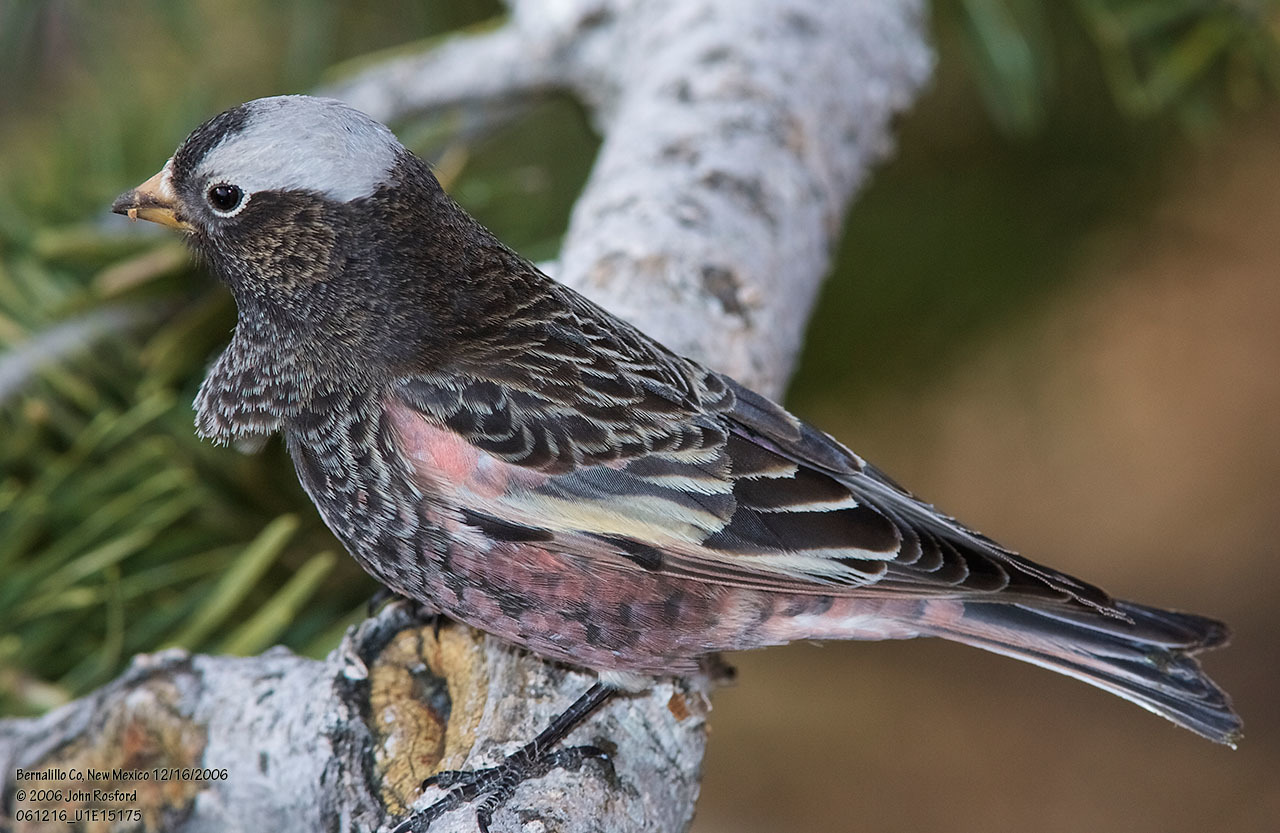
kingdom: Animalia
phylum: Chordata
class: Aves
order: Passeriformes
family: Fringillidae
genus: Leucosticte
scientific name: Leucosticte atrata
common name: Black rosy-finch
